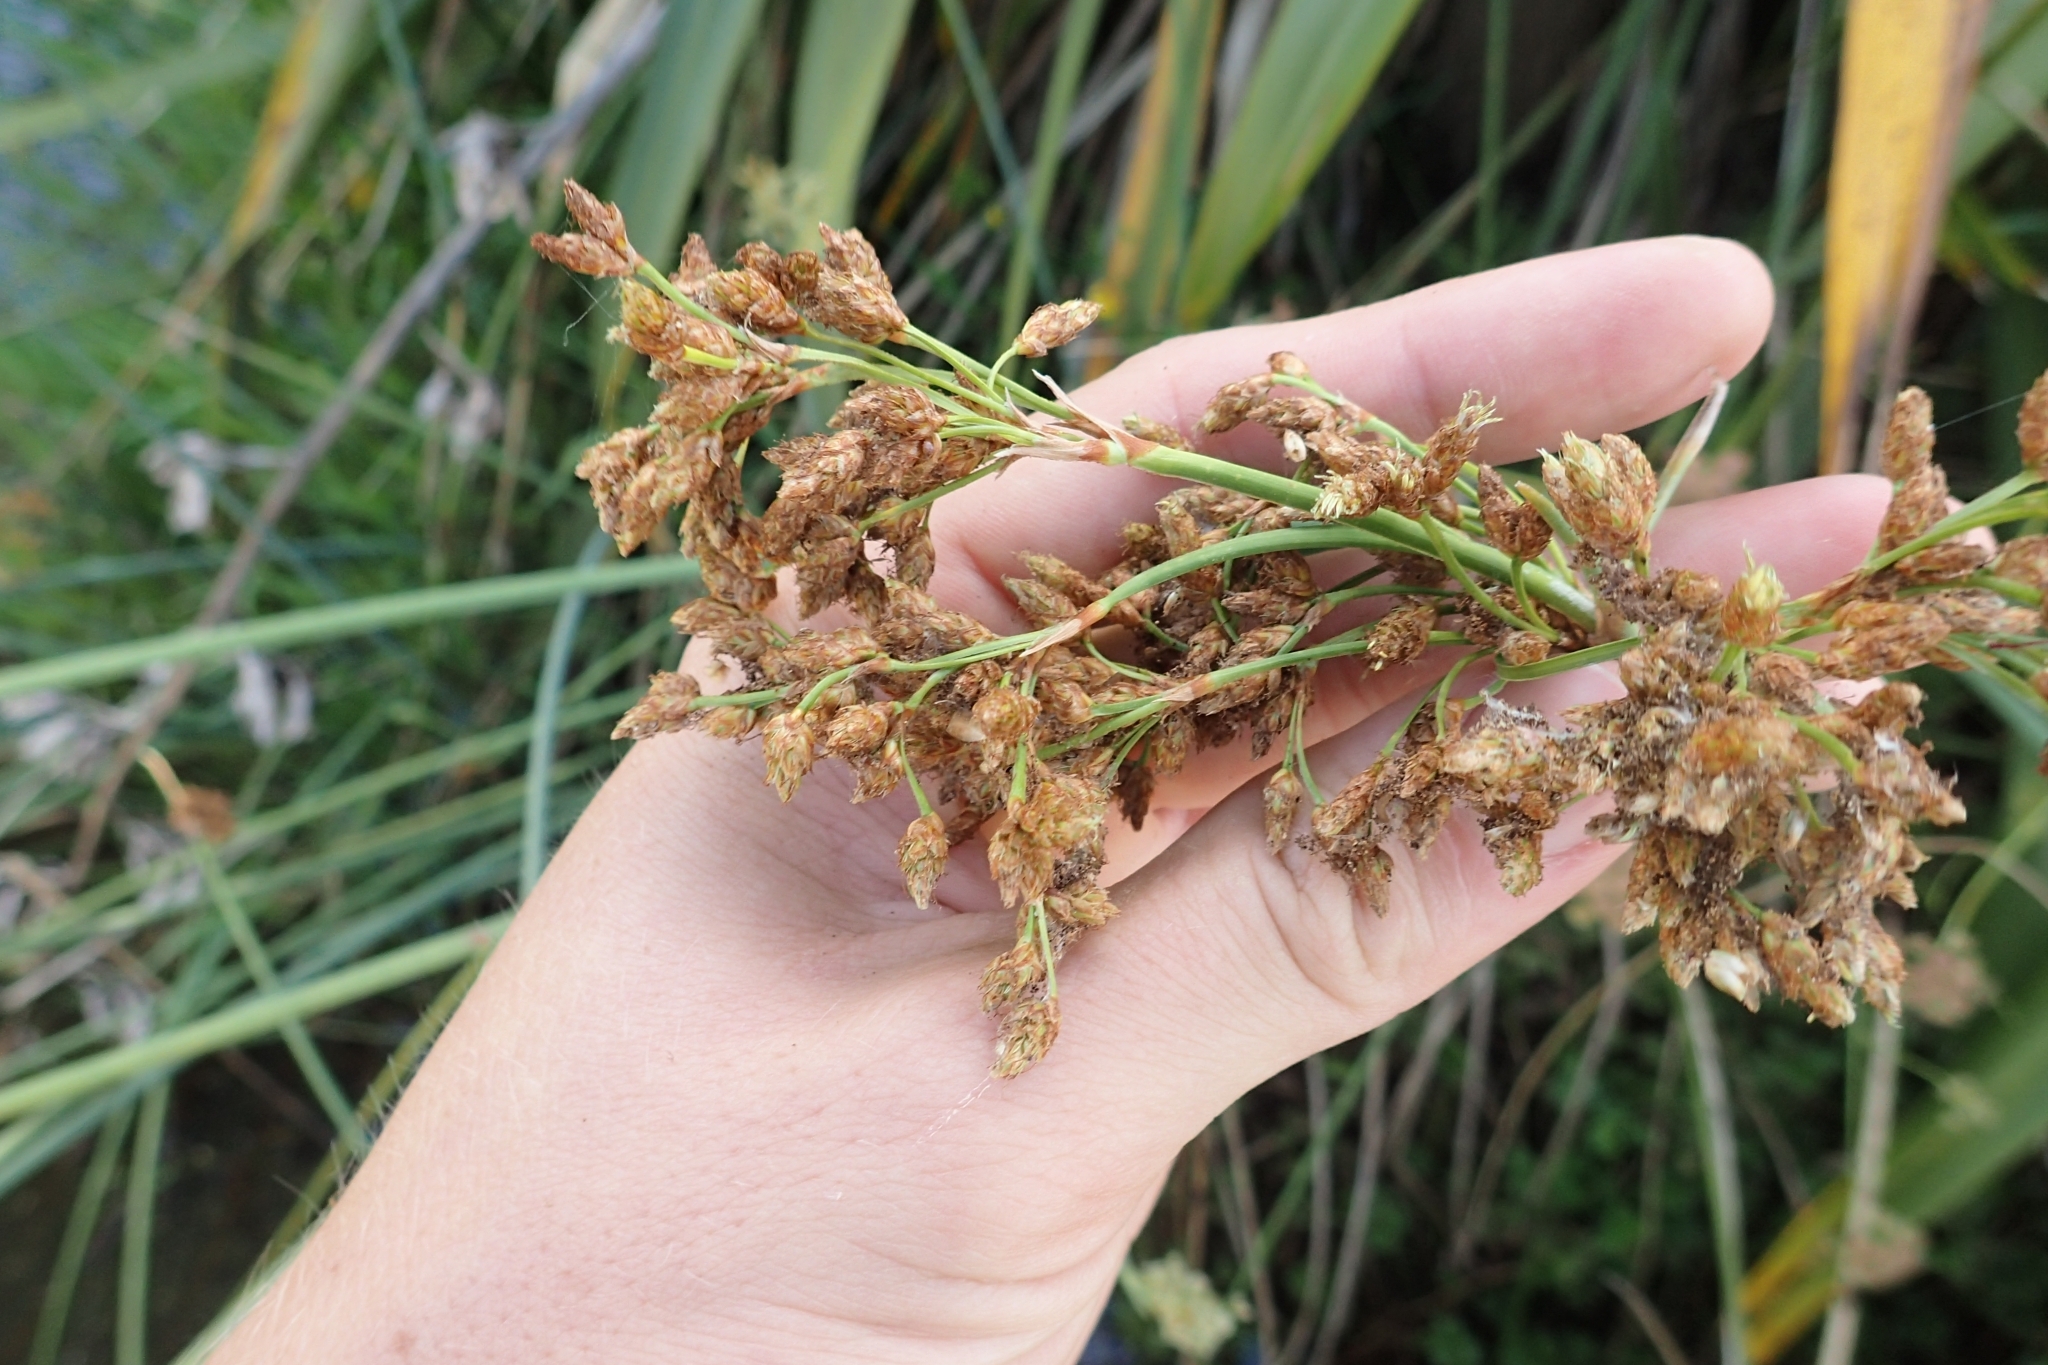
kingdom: Plantae
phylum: Tracheophyta
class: Liliopsida
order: Poales
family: Cyperaceae
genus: Schoenoplectus
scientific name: Schoenoplectus tabernaemontani
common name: Grey club-rush
